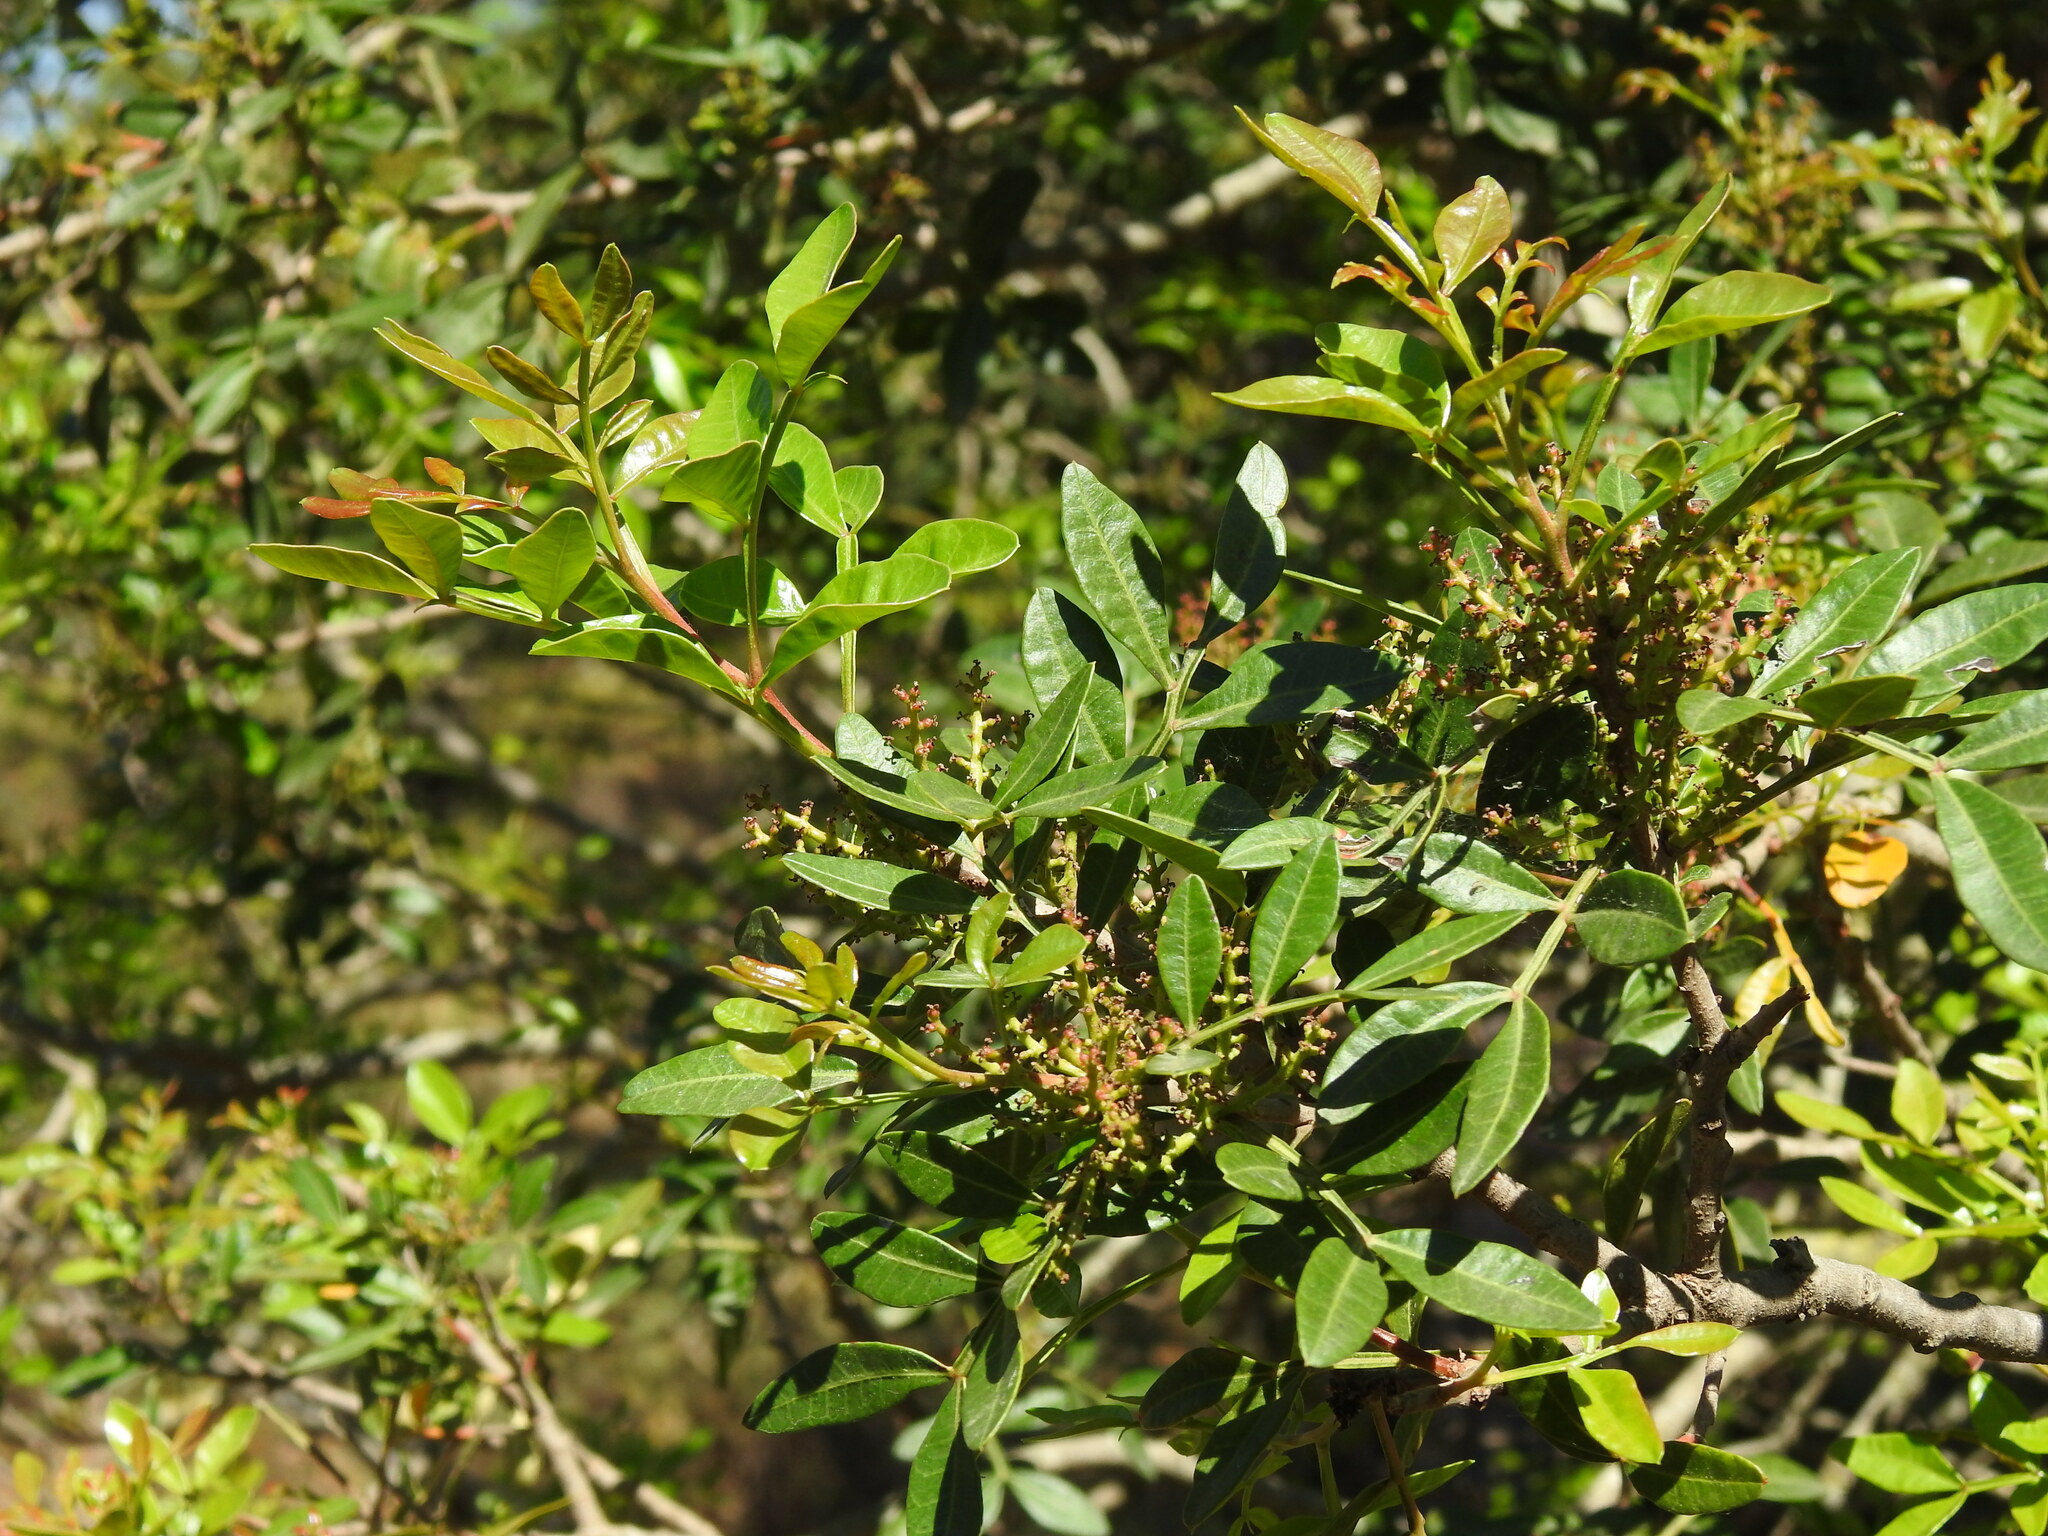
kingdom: Plantae
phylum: Tracheophyta
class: Magnoliopsida
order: Sapindales
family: Anacardiaceae
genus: Pistacia
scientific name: Pistacia lentiscus
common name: Lentisk
